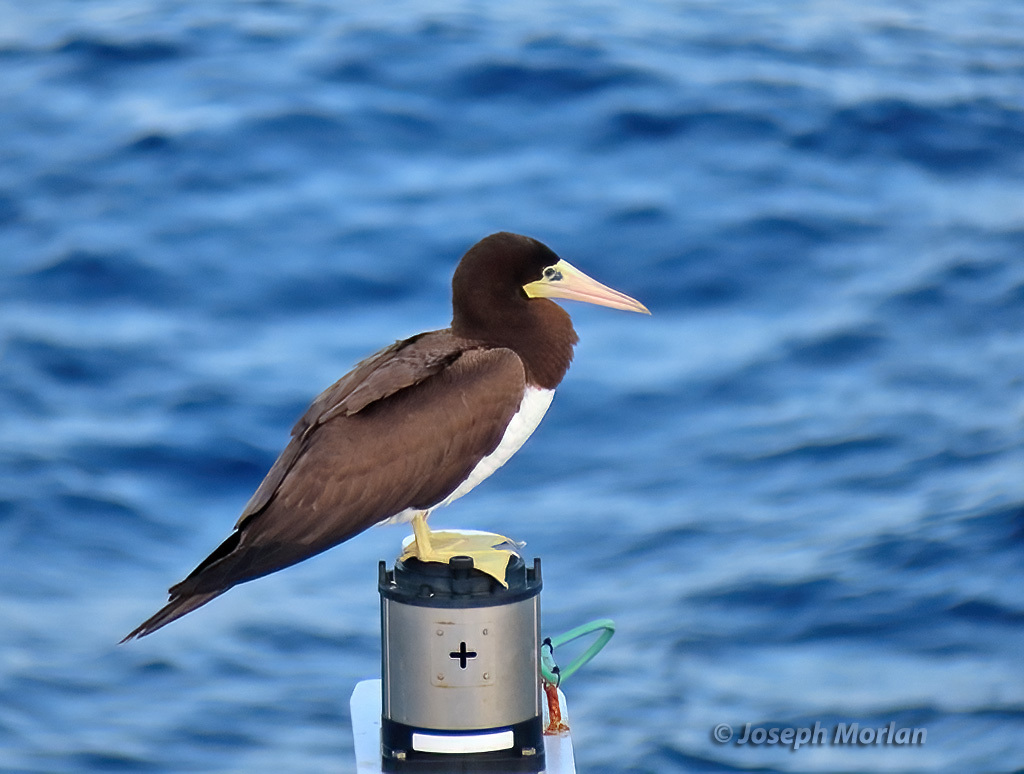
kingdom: Animalia
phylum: Chordata
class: Aves
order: Suliformes
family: Sulidae
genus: Sula
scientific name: Sula leucogaster
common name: Brown booby
